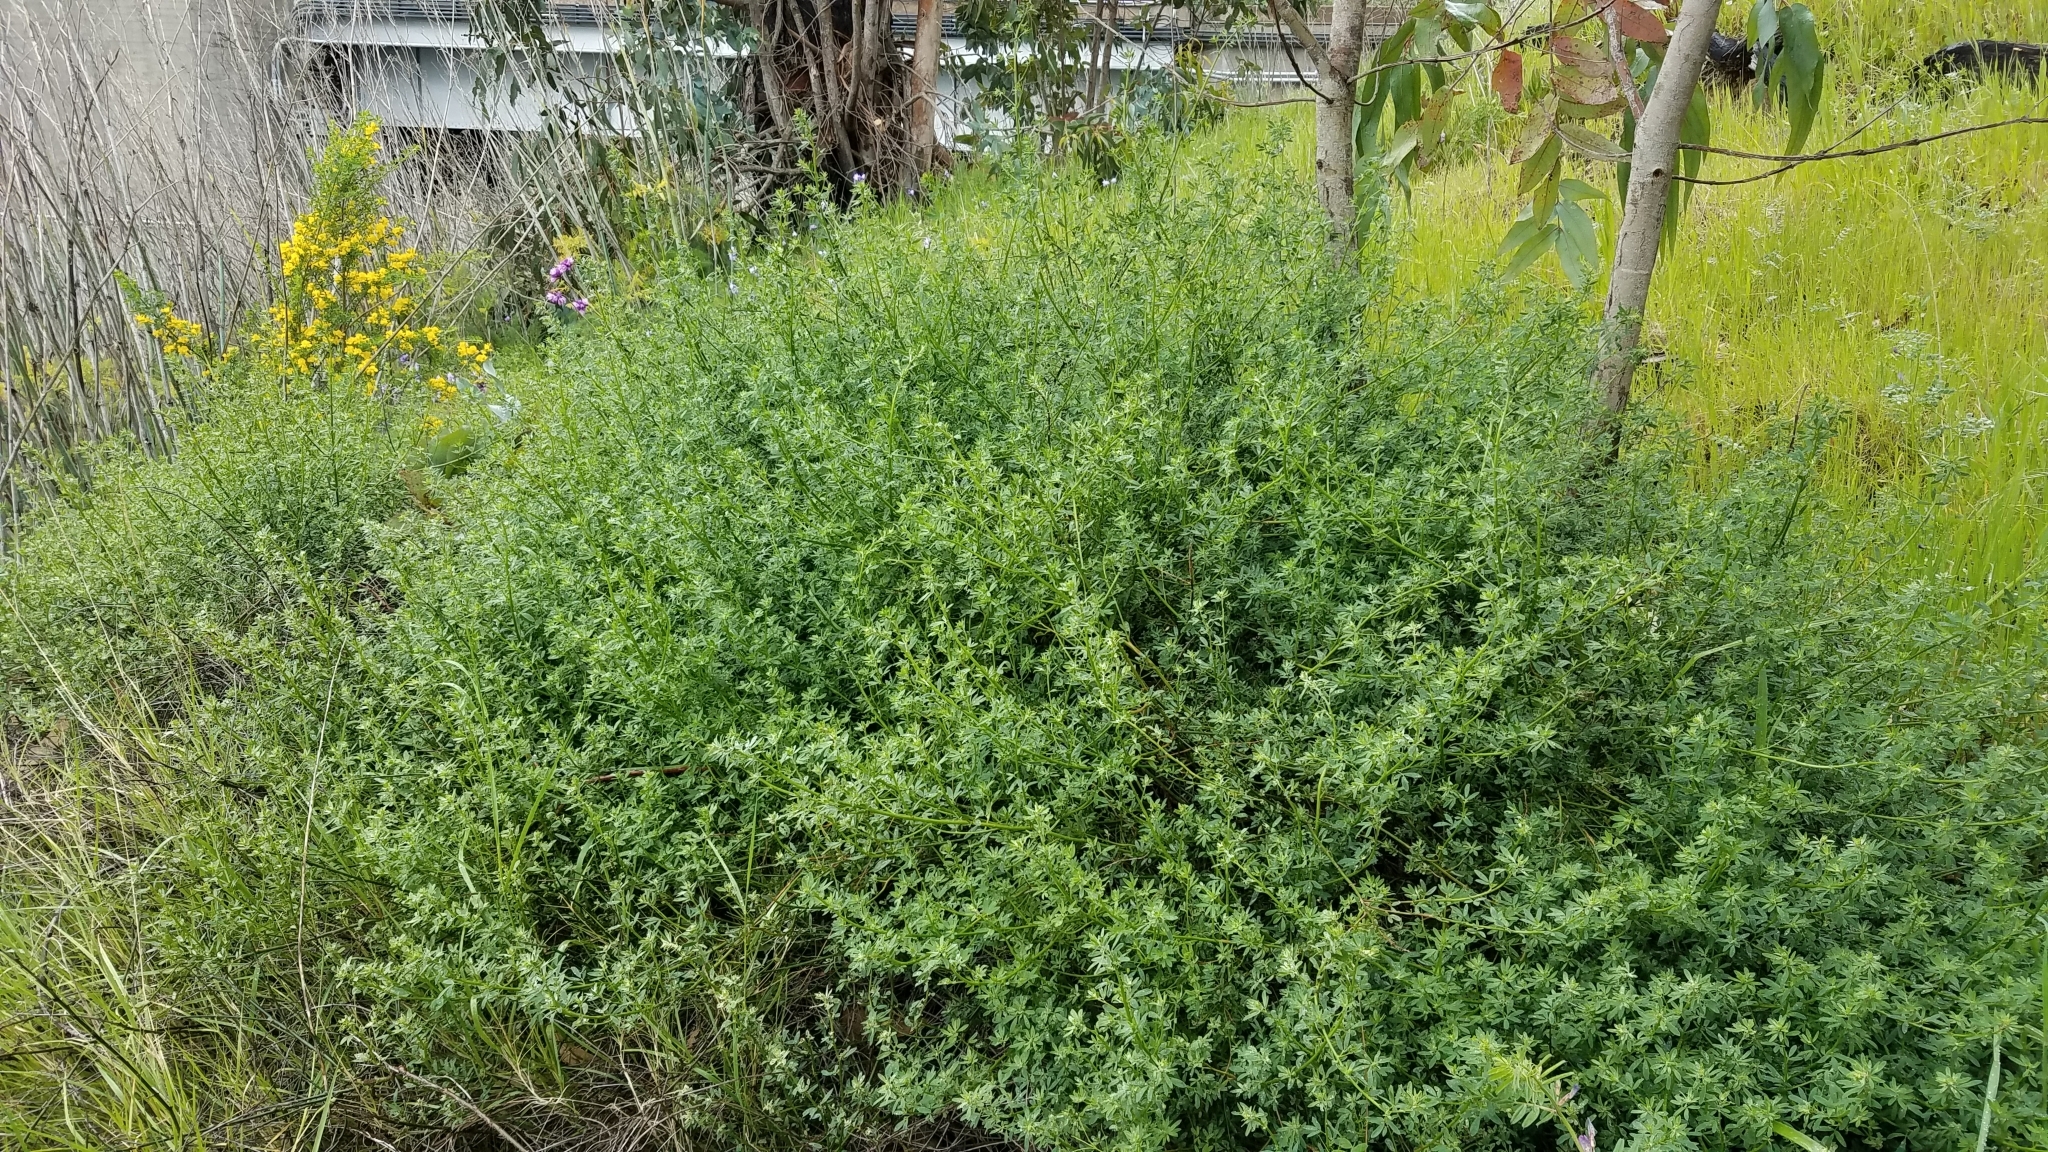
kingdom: Plantae
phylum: Tracheophyta
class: Magnoliopsida
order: Fabales
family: Fabaceae
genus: Acmispon
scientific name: Acmispon glaber
